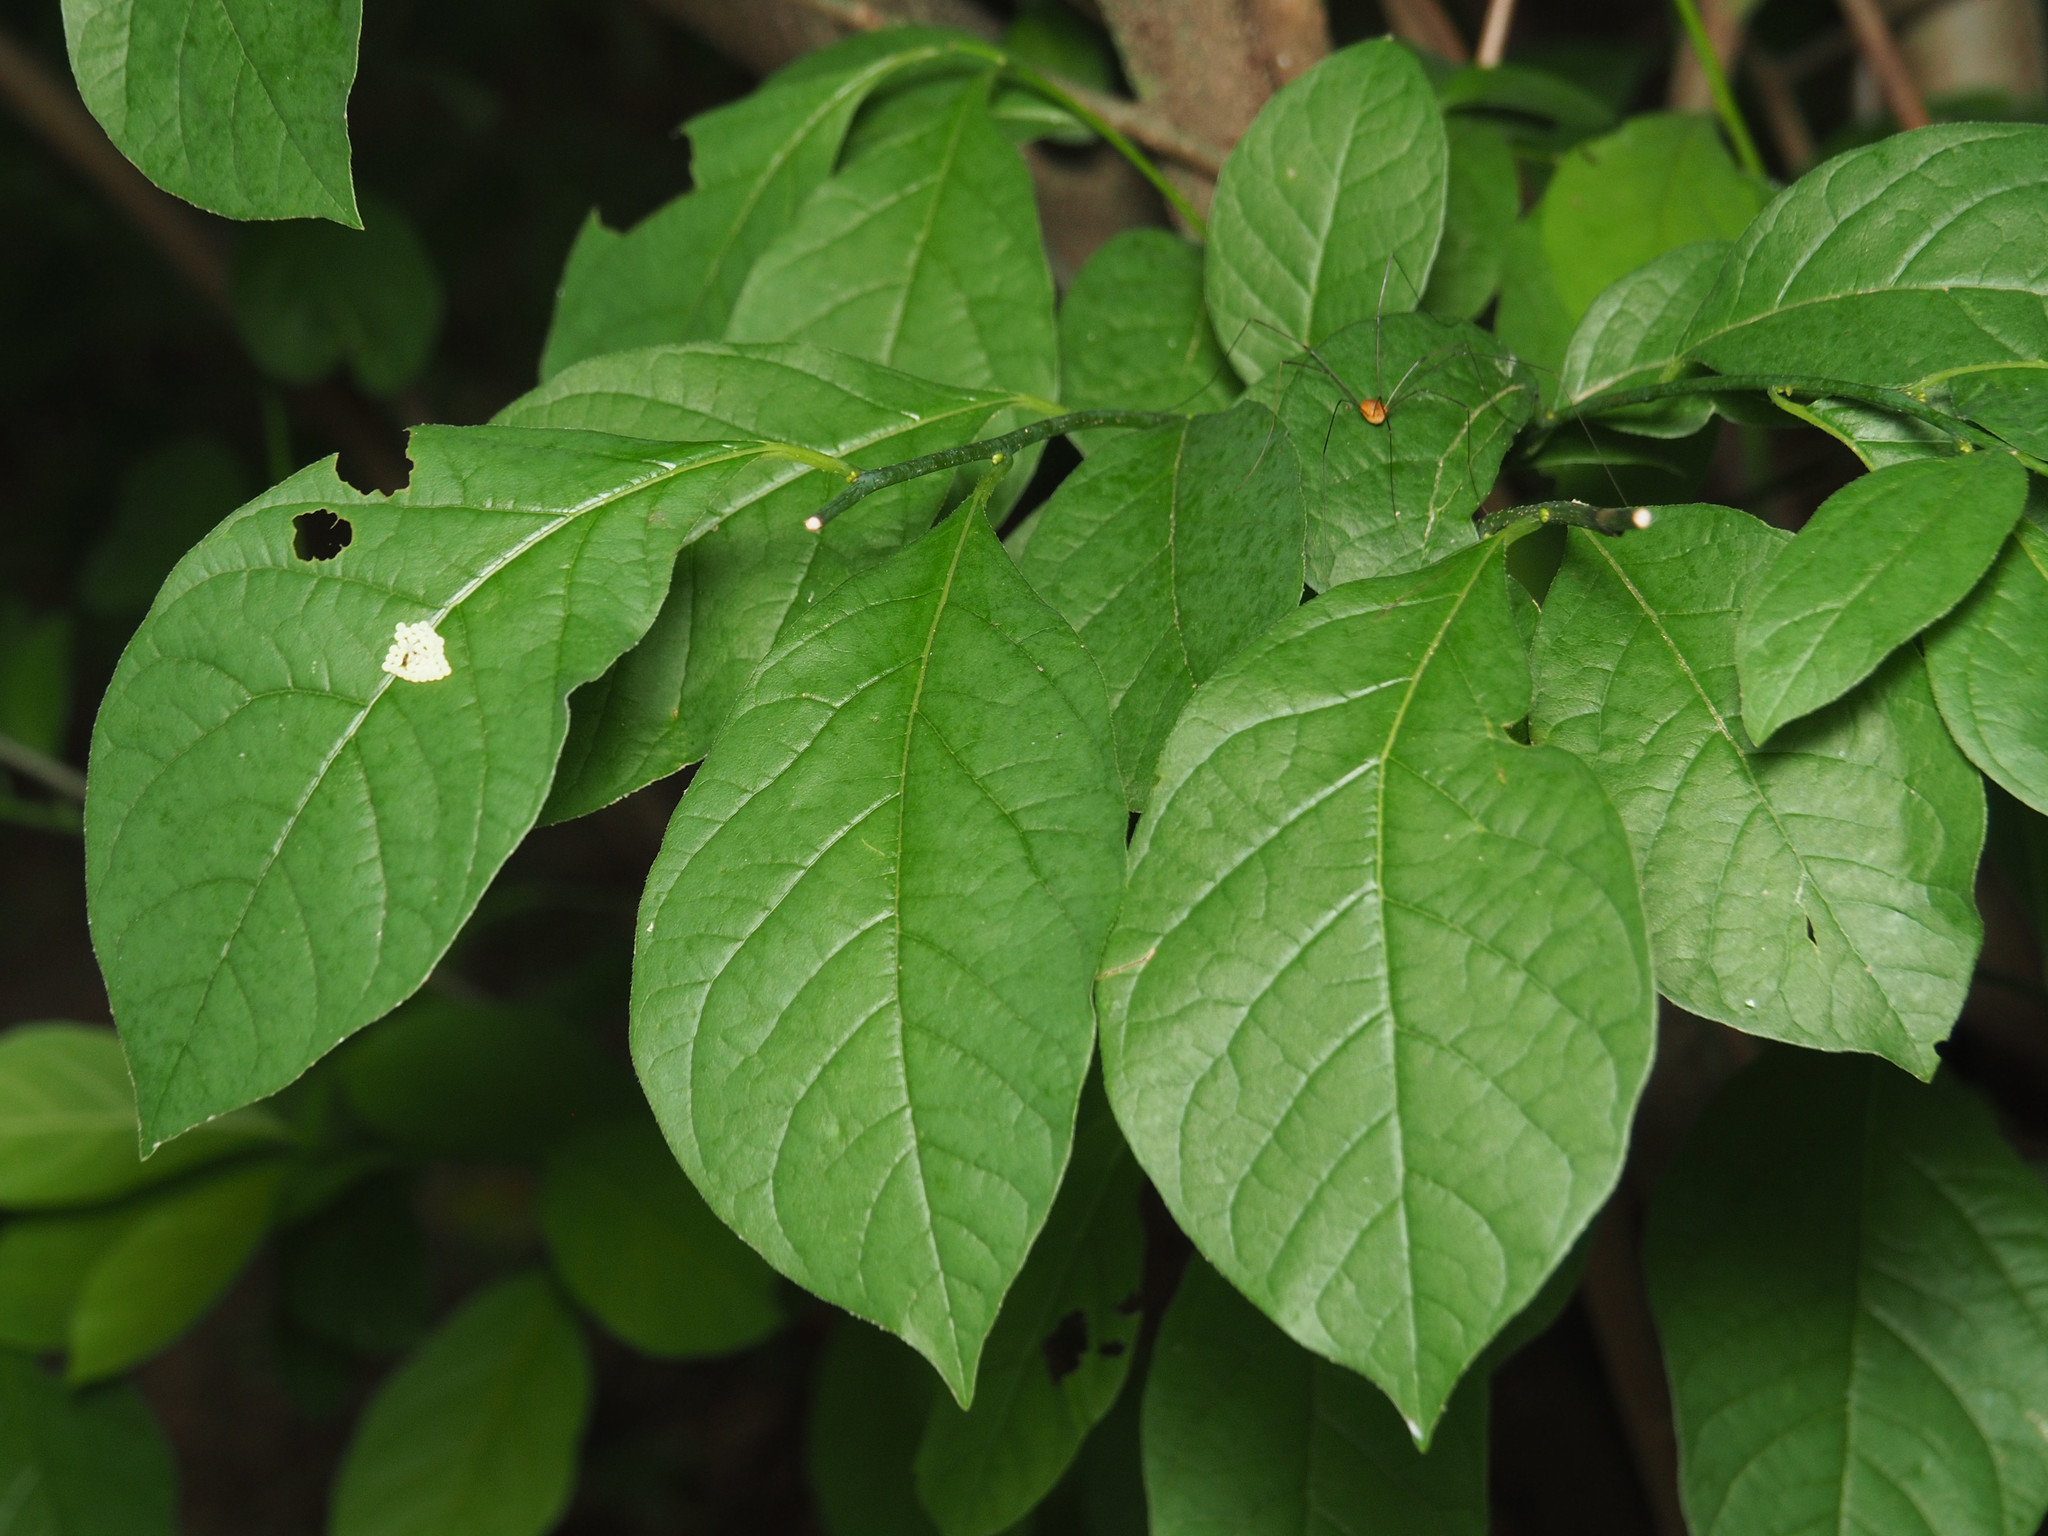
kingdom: Plantae
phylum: Tracheophyta
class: Magnoliopsida
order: Laurales
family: Lauraceae
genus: Lindera
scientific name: Lindera benzoin
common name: Spicebush
